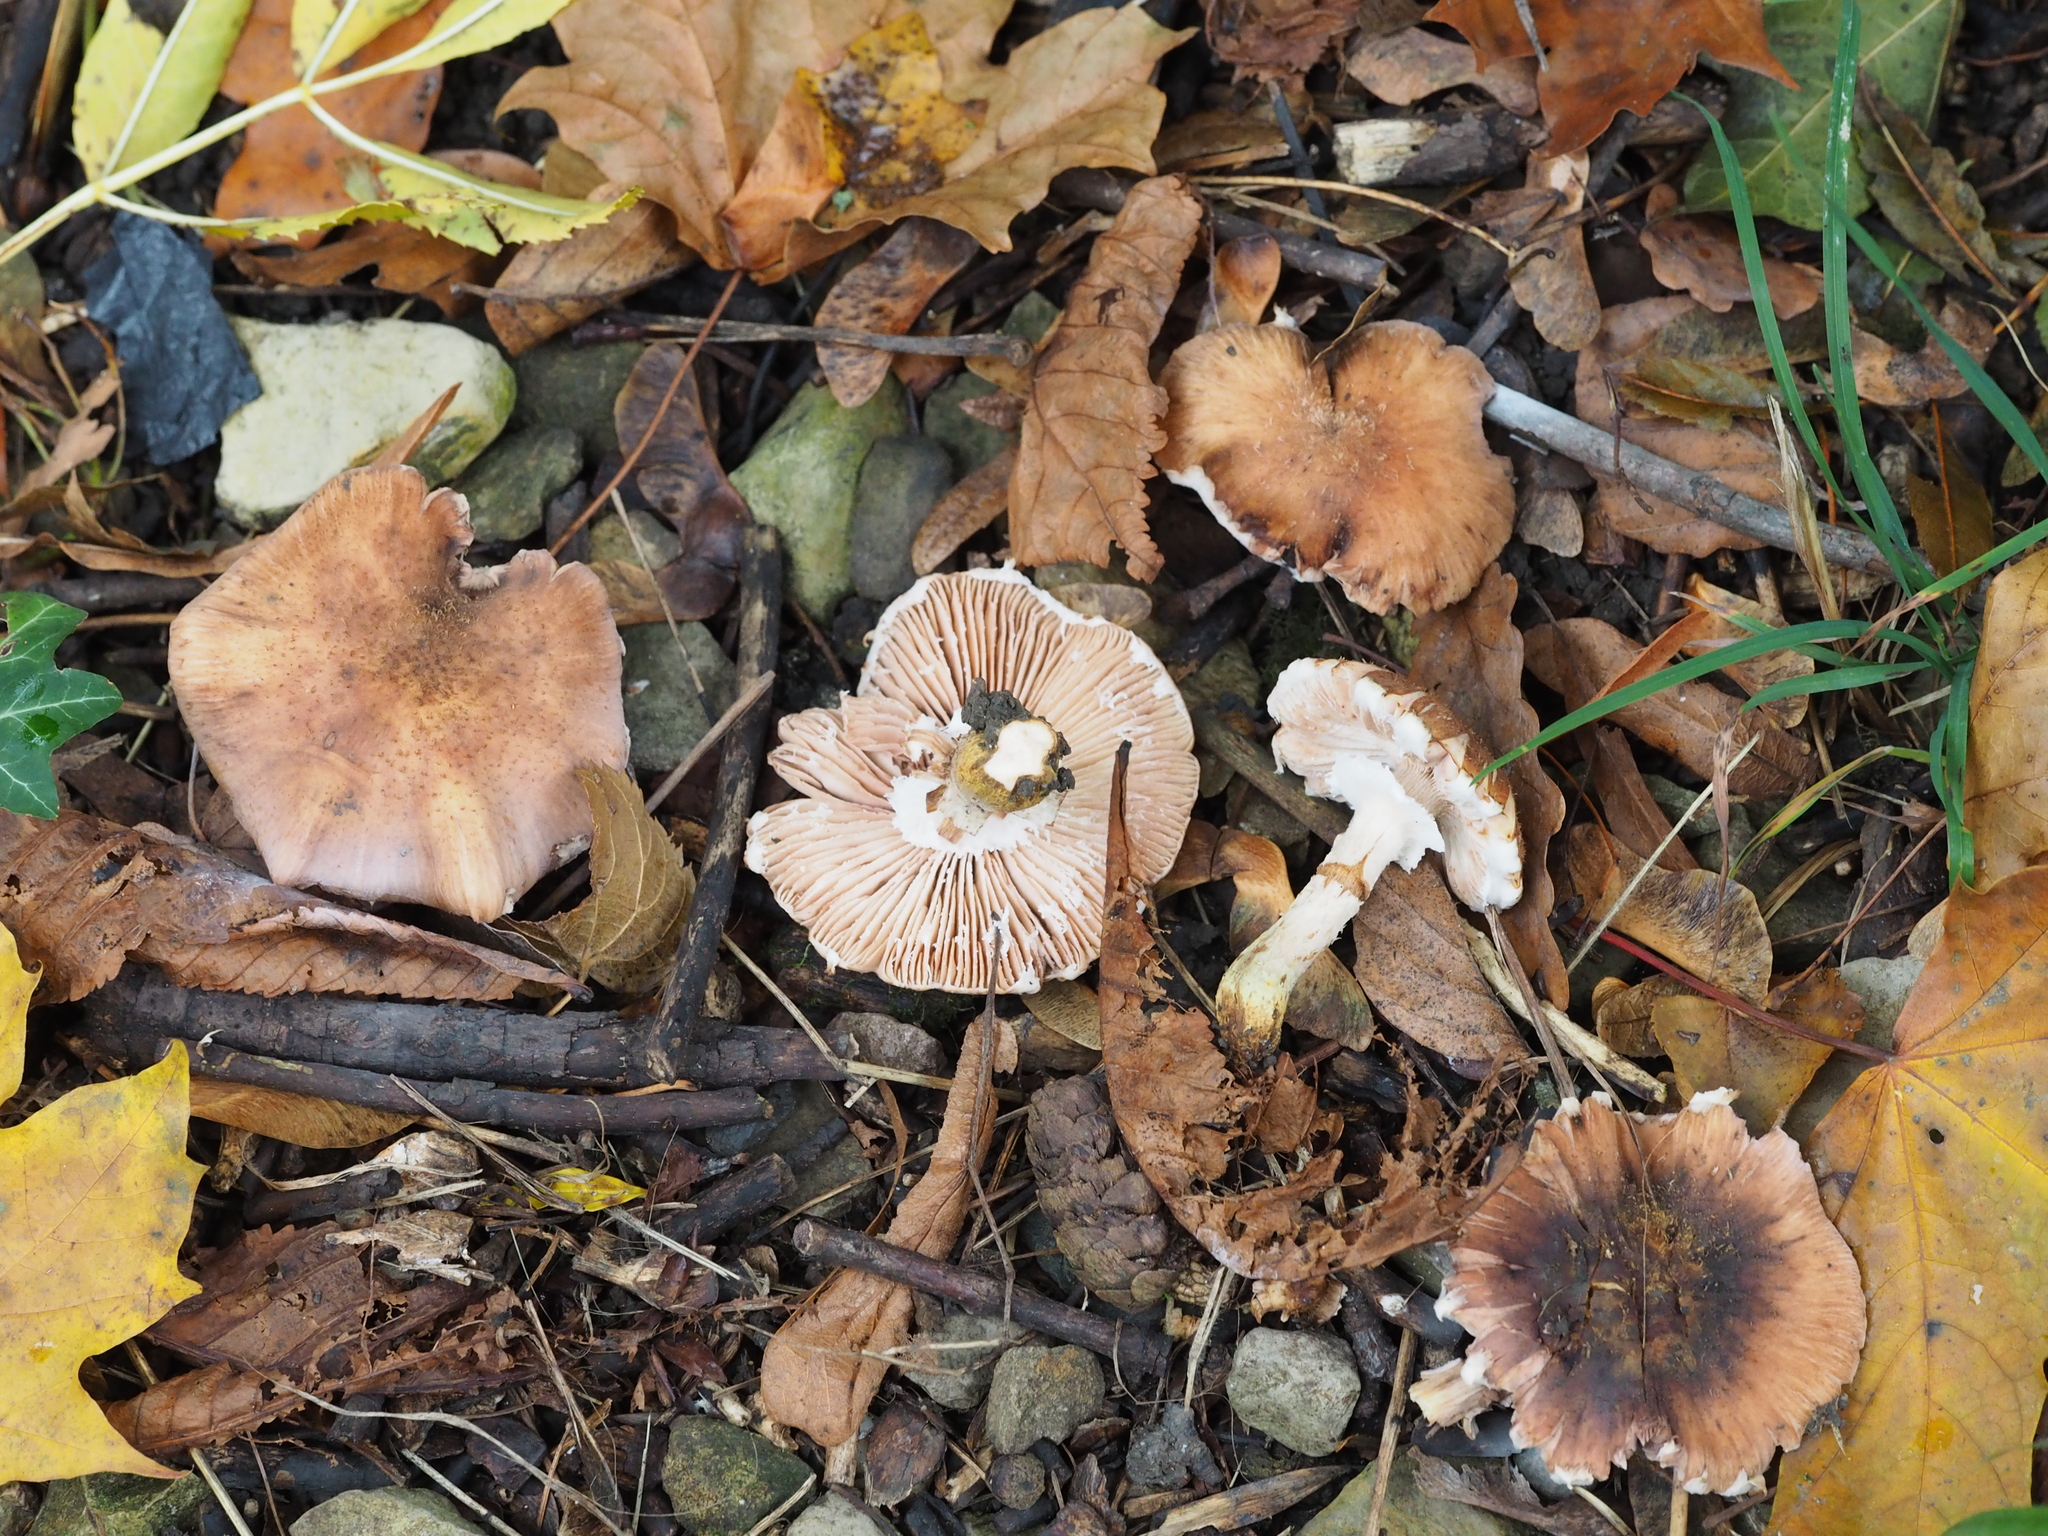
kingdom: Fungi
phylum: Basidiomycota
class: Agaricomycetes
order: Agaricales
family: Physalacriaceae
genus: Armillaria
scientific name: Armillaria gallica
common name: Bulbous honey fungus
